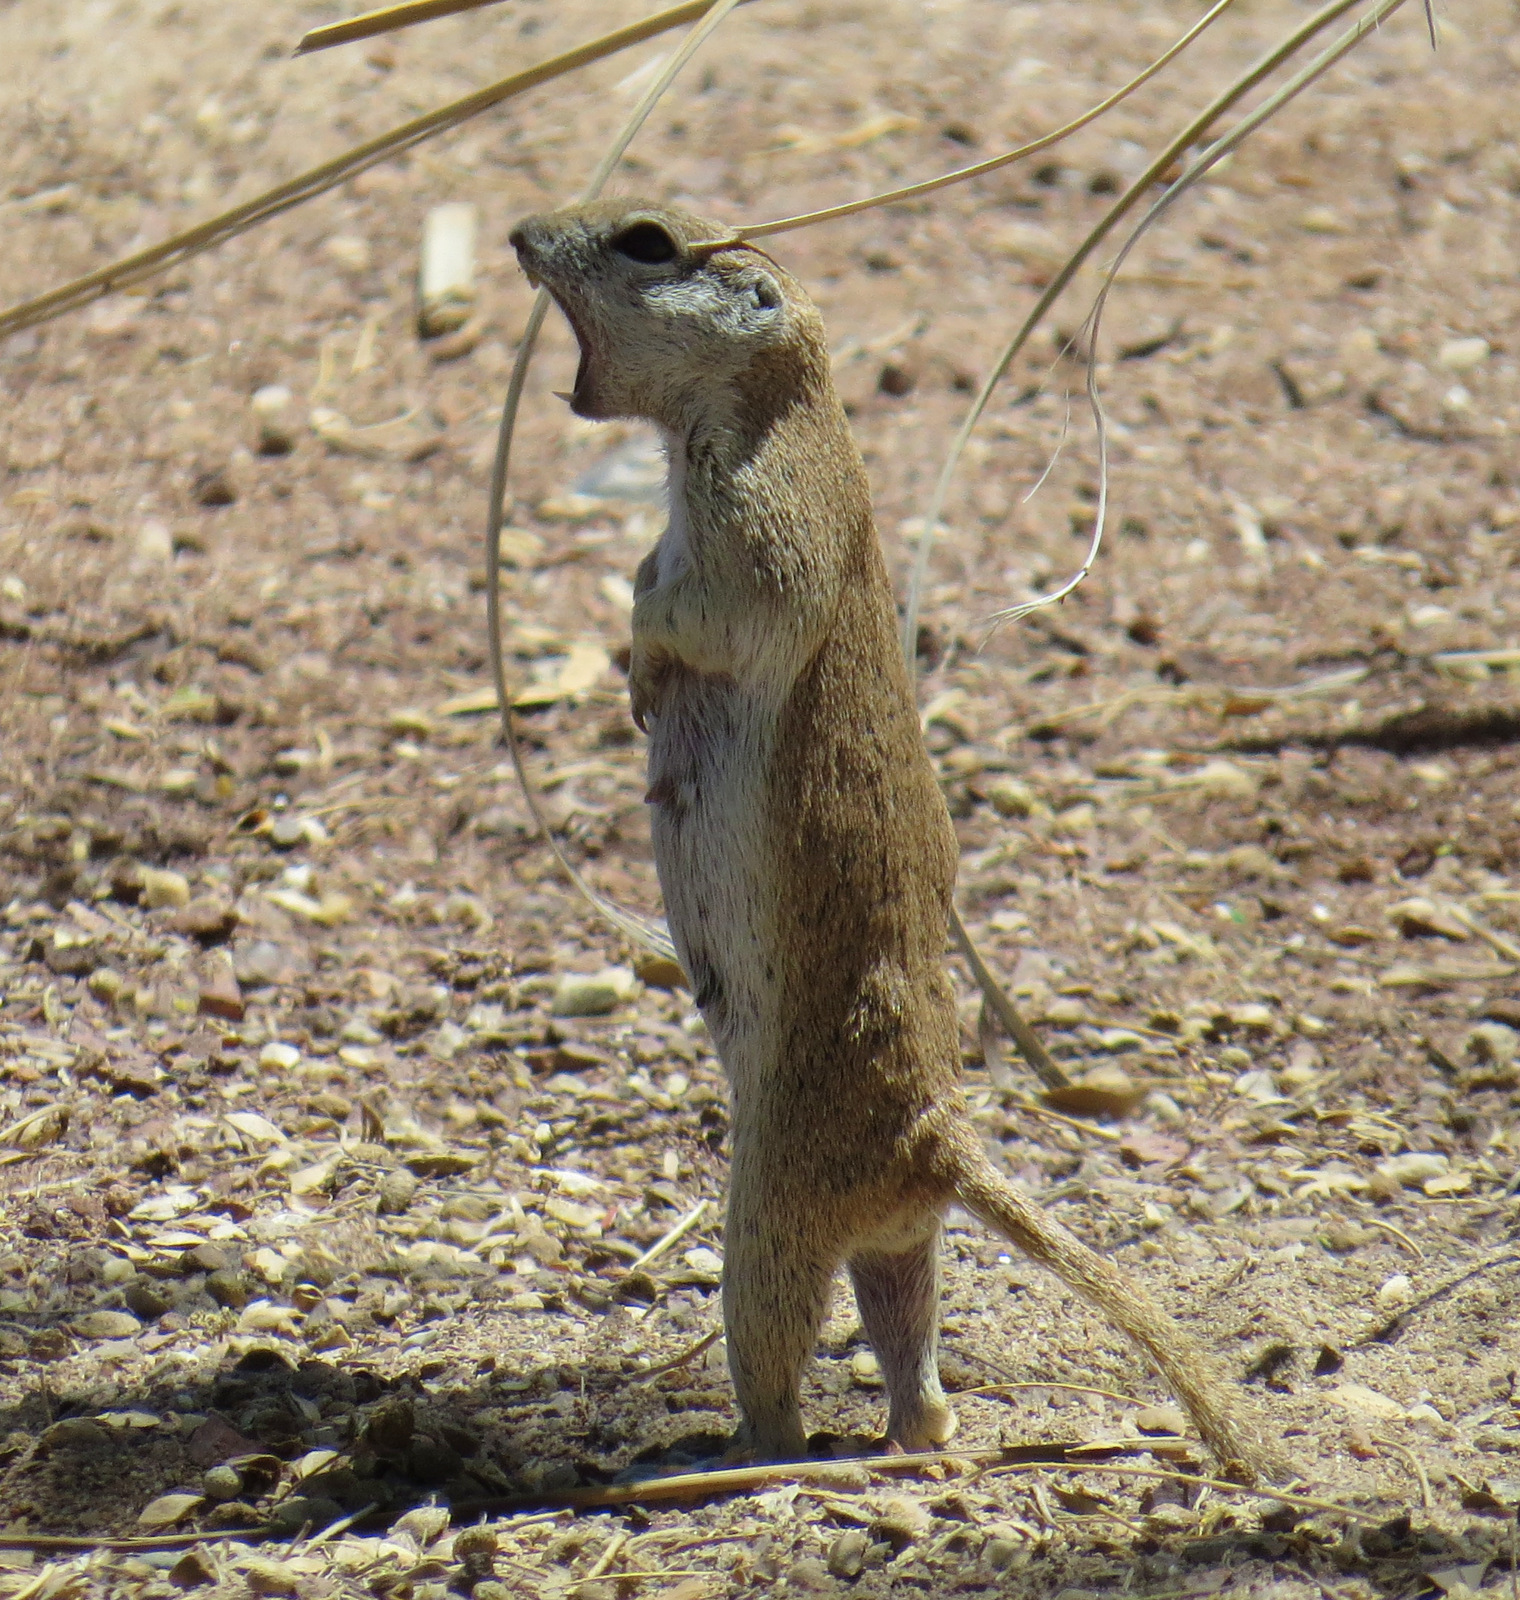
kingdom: Animalia
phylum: Chordata
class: Mammalia
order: Rodentia
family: Sciuridae
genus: Xerospermophilus
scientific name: Xerospermophilus tereticaudus
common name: Round-tailed ground squirrel
